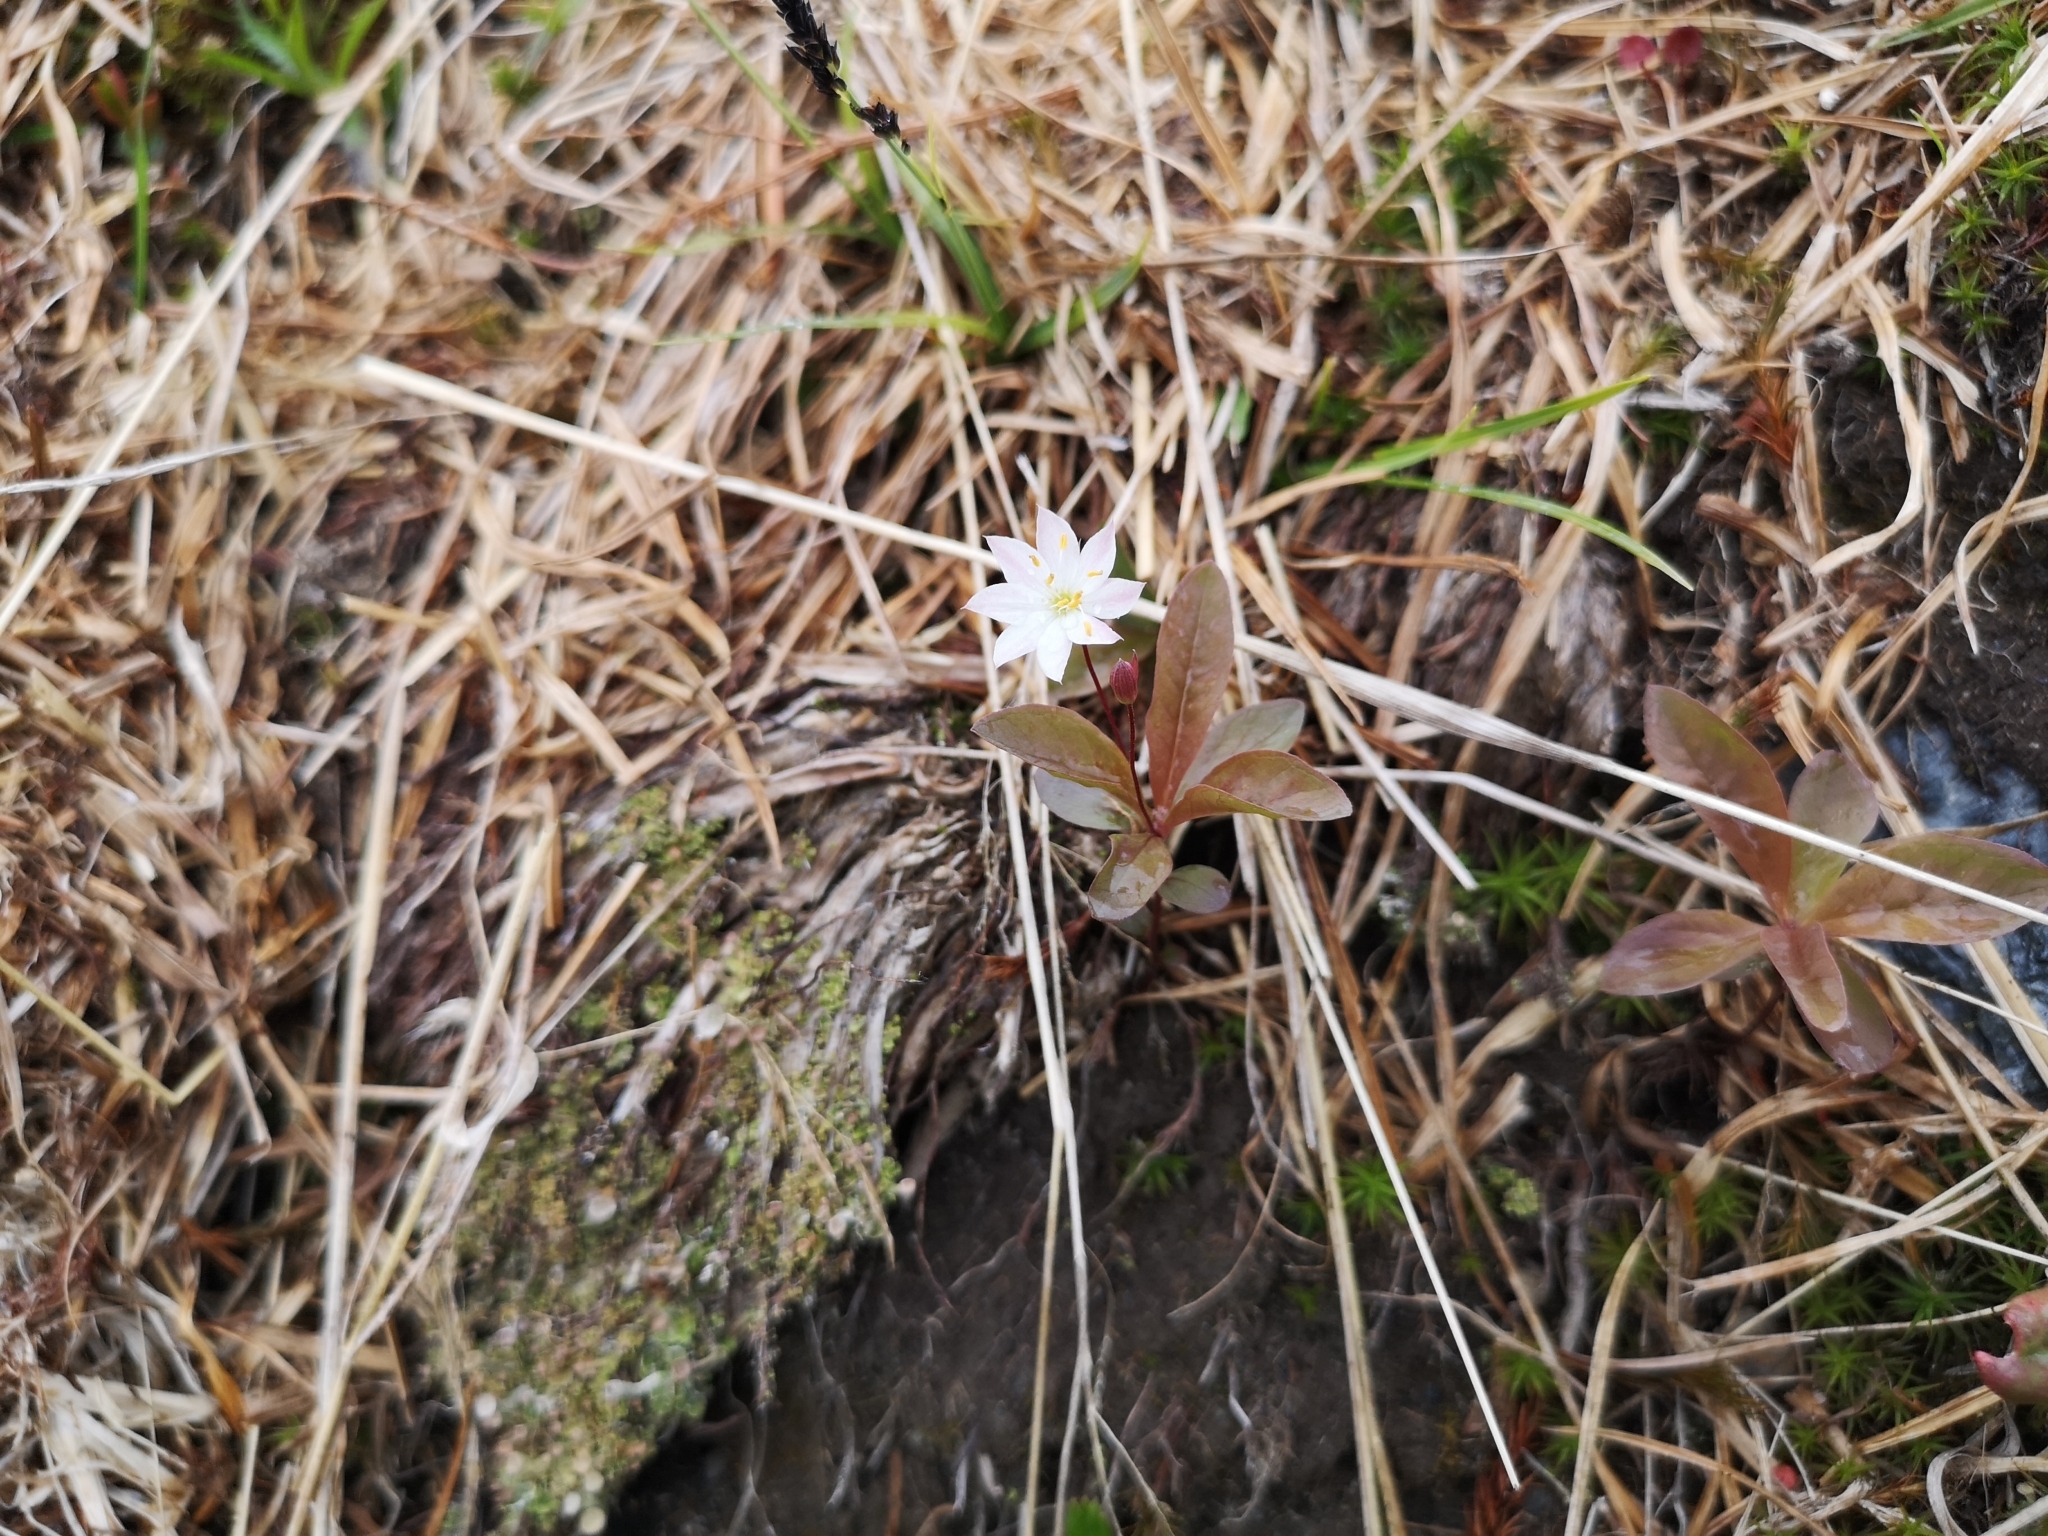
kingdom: Plantae
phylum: Tracheophyta
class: Magnoliopsida
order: Ericales
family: Primulaceae
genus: Lysimachia
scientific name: Lysimachia europaea
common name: Arctic starflower
